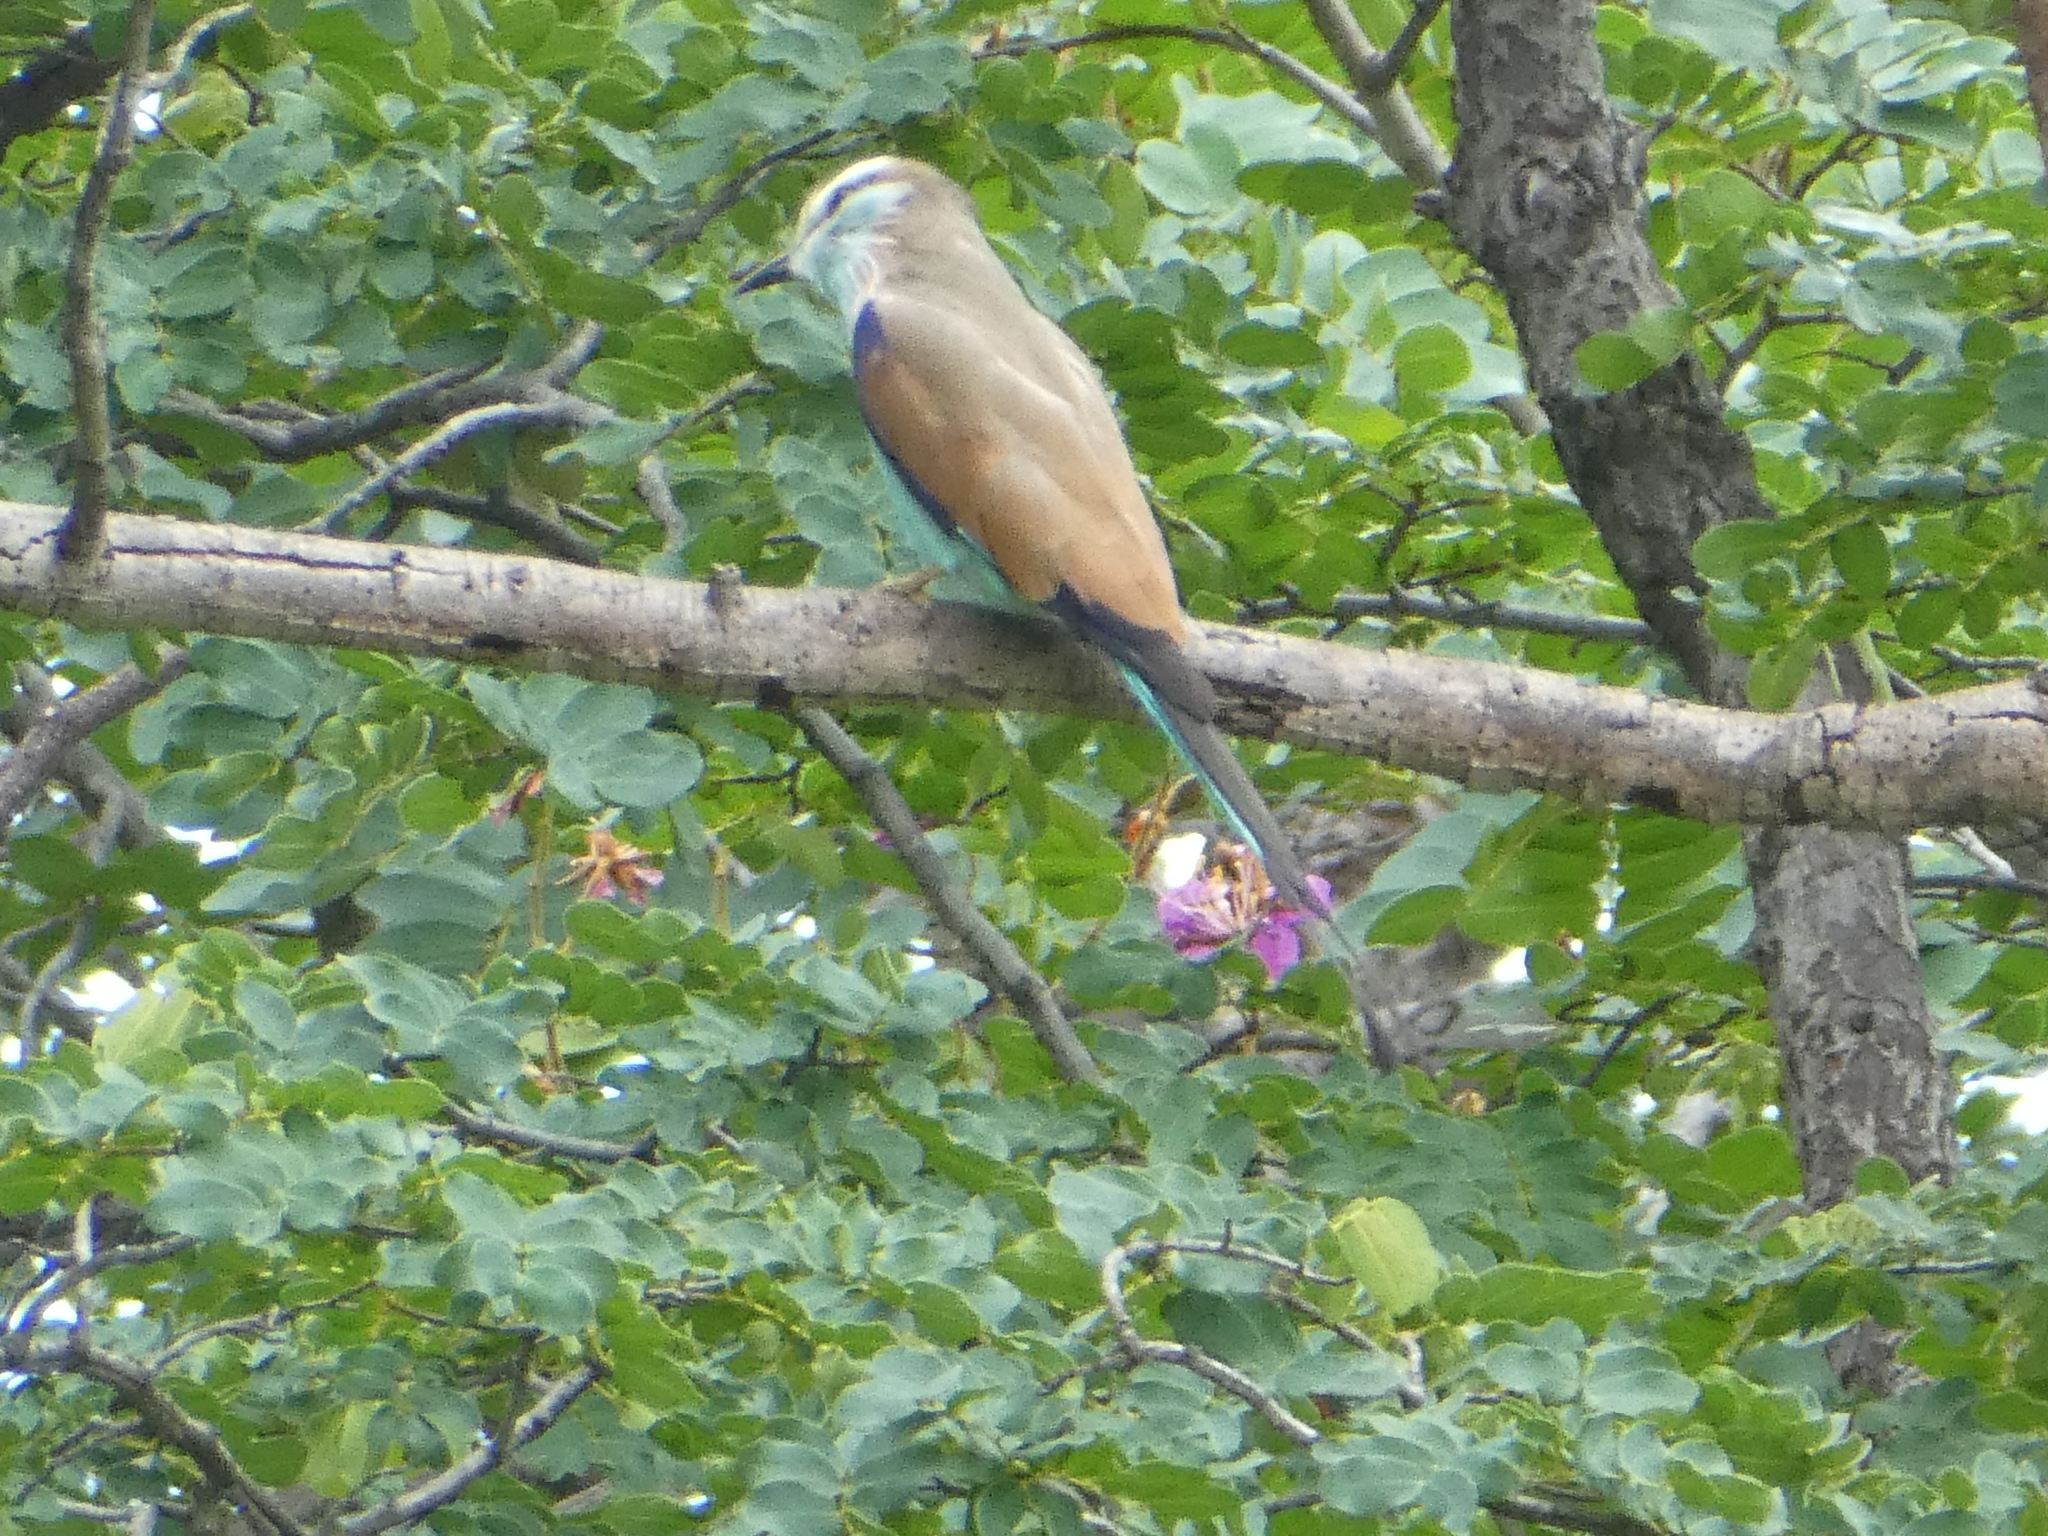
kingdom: Animalia
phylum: Chordata
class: Aves
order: Coraciiformes
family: Coraciidae
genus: Coracias
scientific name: Coracias spatulatus
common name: Racket-tailed roller
